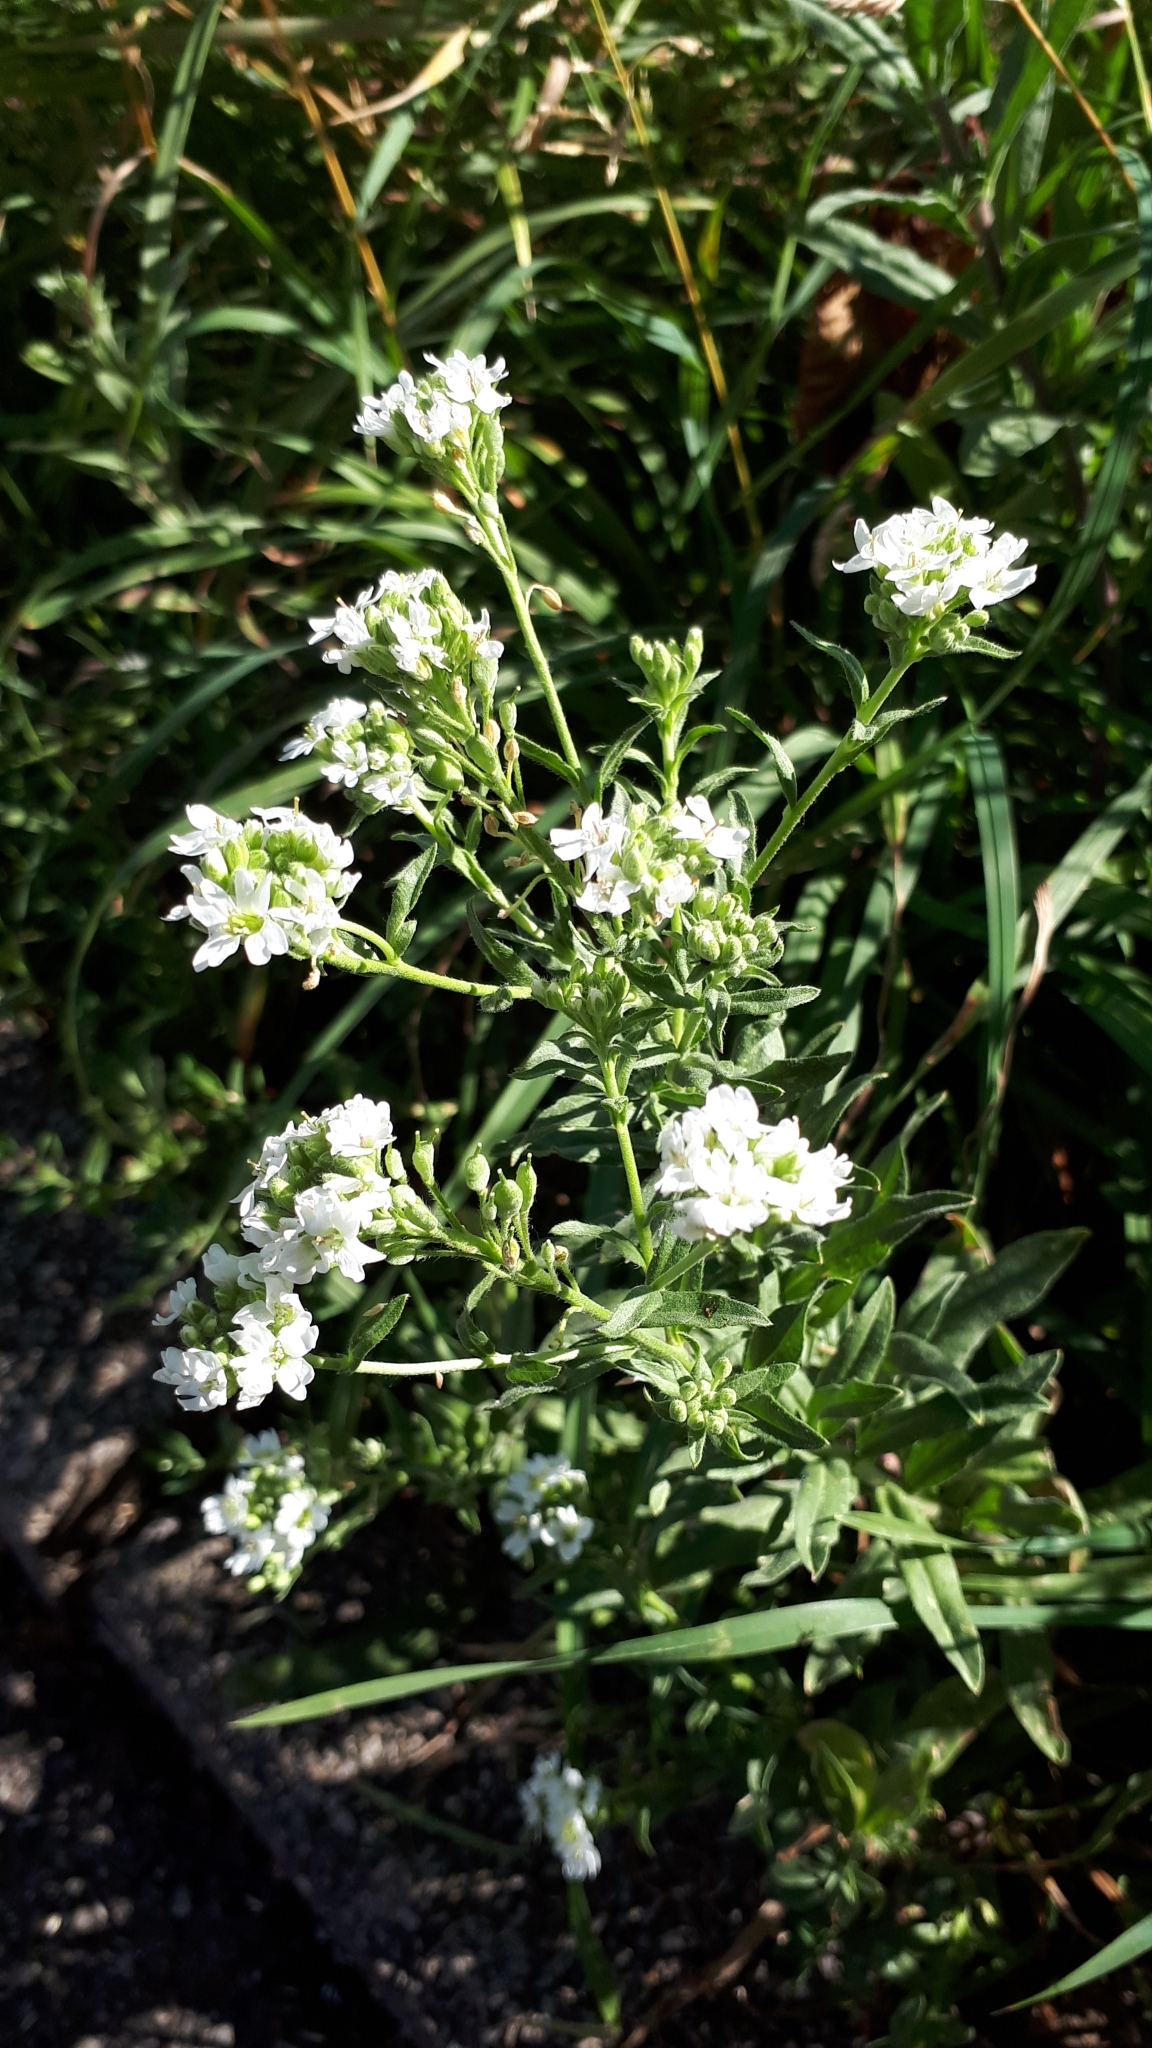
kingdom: Plantae
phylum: Tracheophyta
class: Magnoliopsida
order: Brassicales
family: Brassicaceae
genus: Berteroa
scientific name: Berteroa incana
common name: Hoary alison
